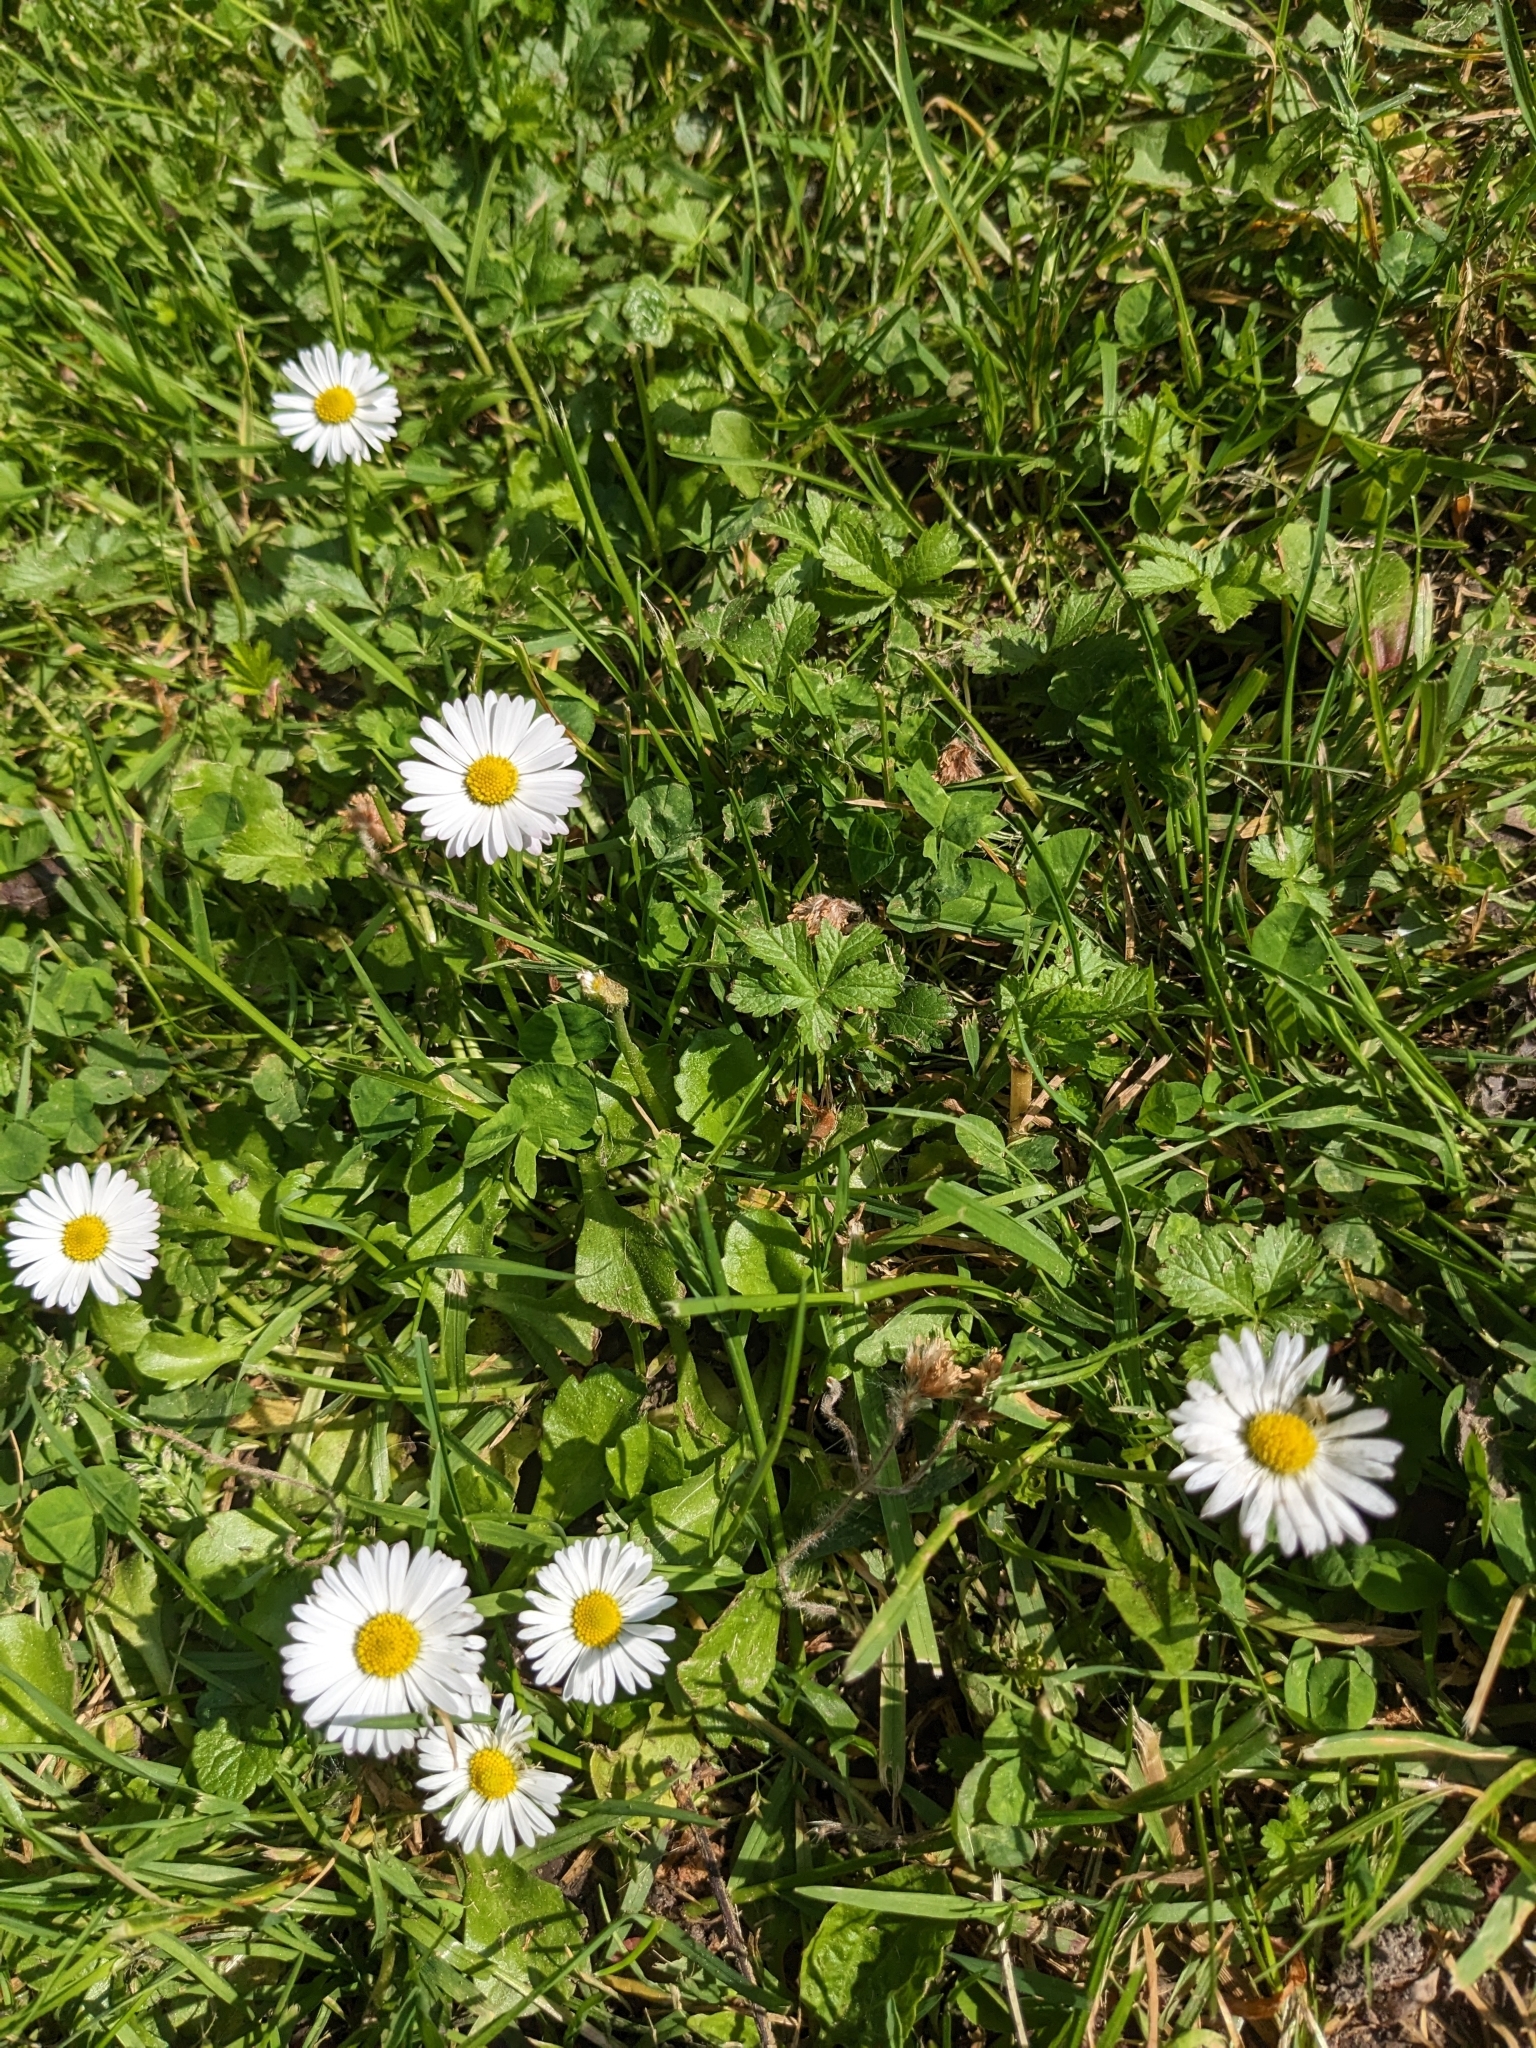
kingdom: Plantae
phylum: Tracheophyta
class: Magnoliopsida
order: Asterales
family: Asteraceae
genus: Bellis
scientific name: Bellis perennis
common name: Lawndaisy
